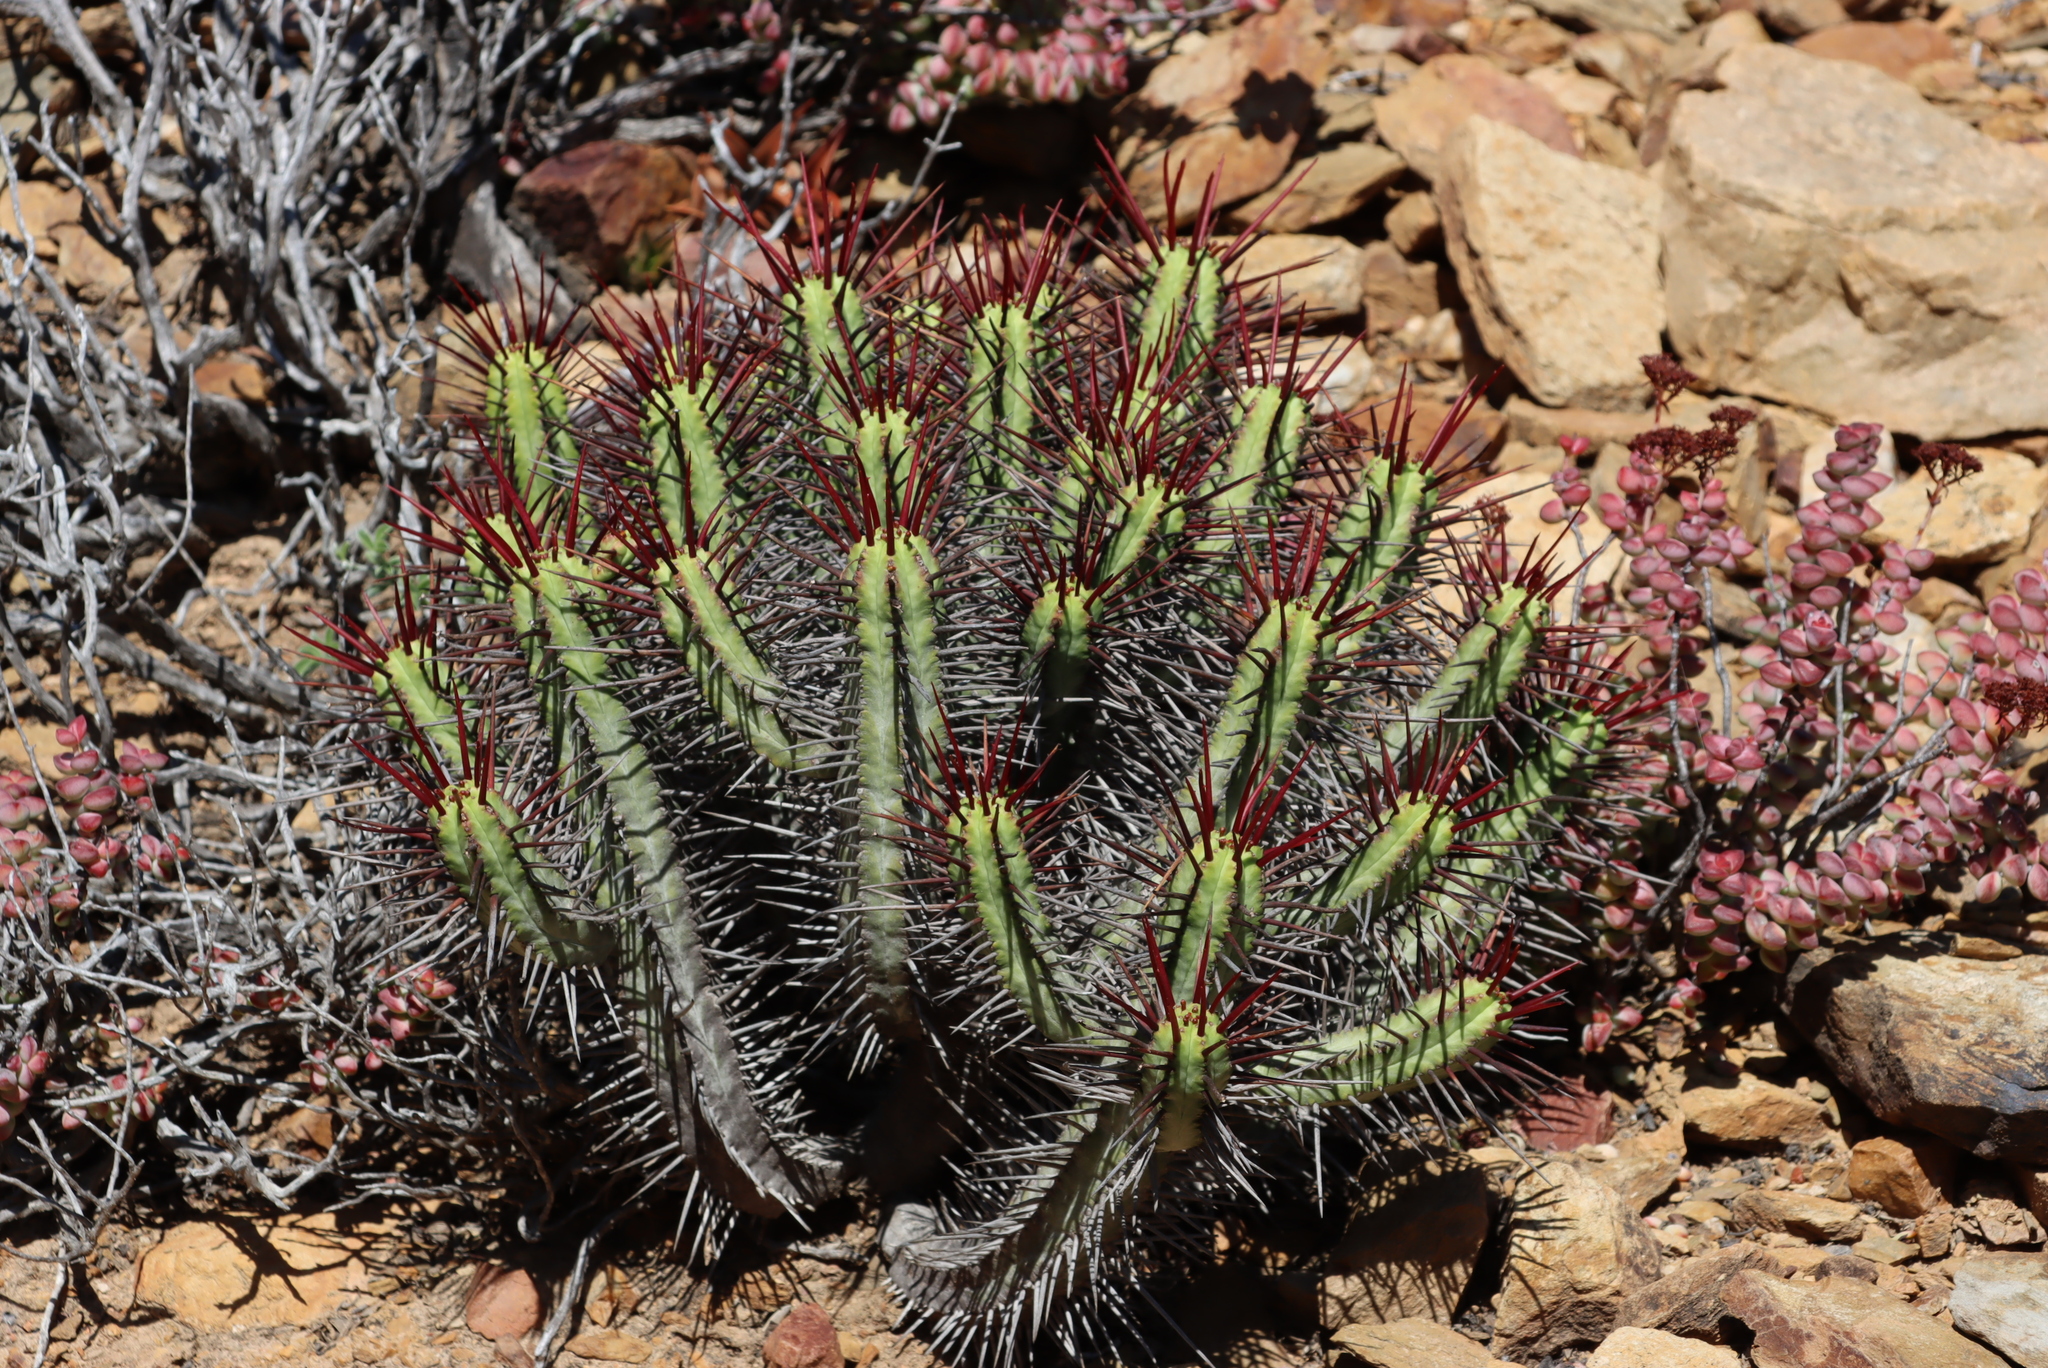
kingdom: Plantae
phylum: Tracheophyta
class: Magnoliopsida
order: Malpighiales
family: Euphorbiaceae
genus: Euphorbia
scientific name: Euphorbia heptagona
